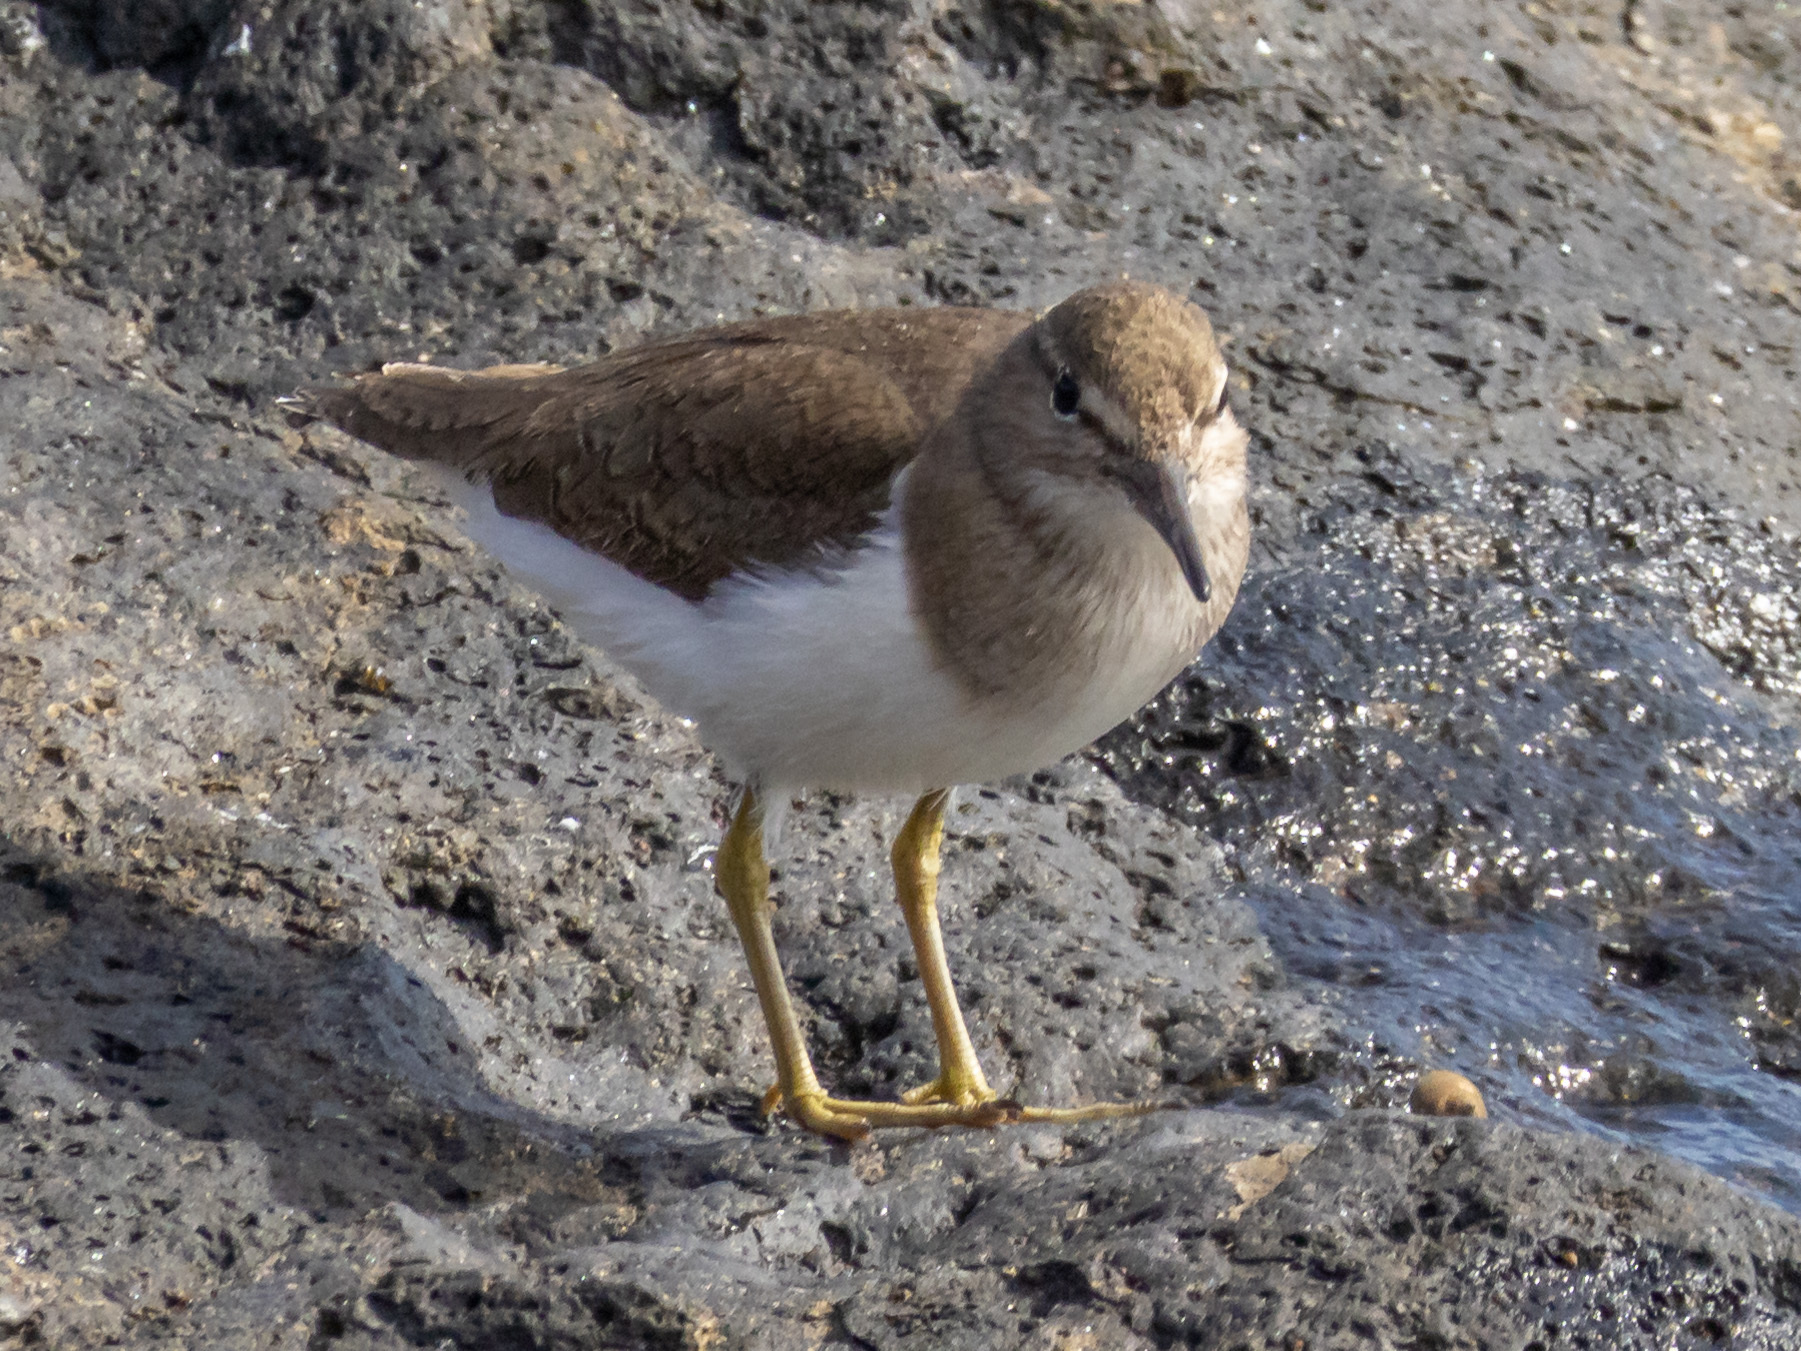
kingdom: Animalia
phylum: Chordata
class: Aves
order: Charadriiformes
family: Scolopacidae
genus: Actitis
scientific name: Actitis hypoleucos
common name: Common sandpiper
